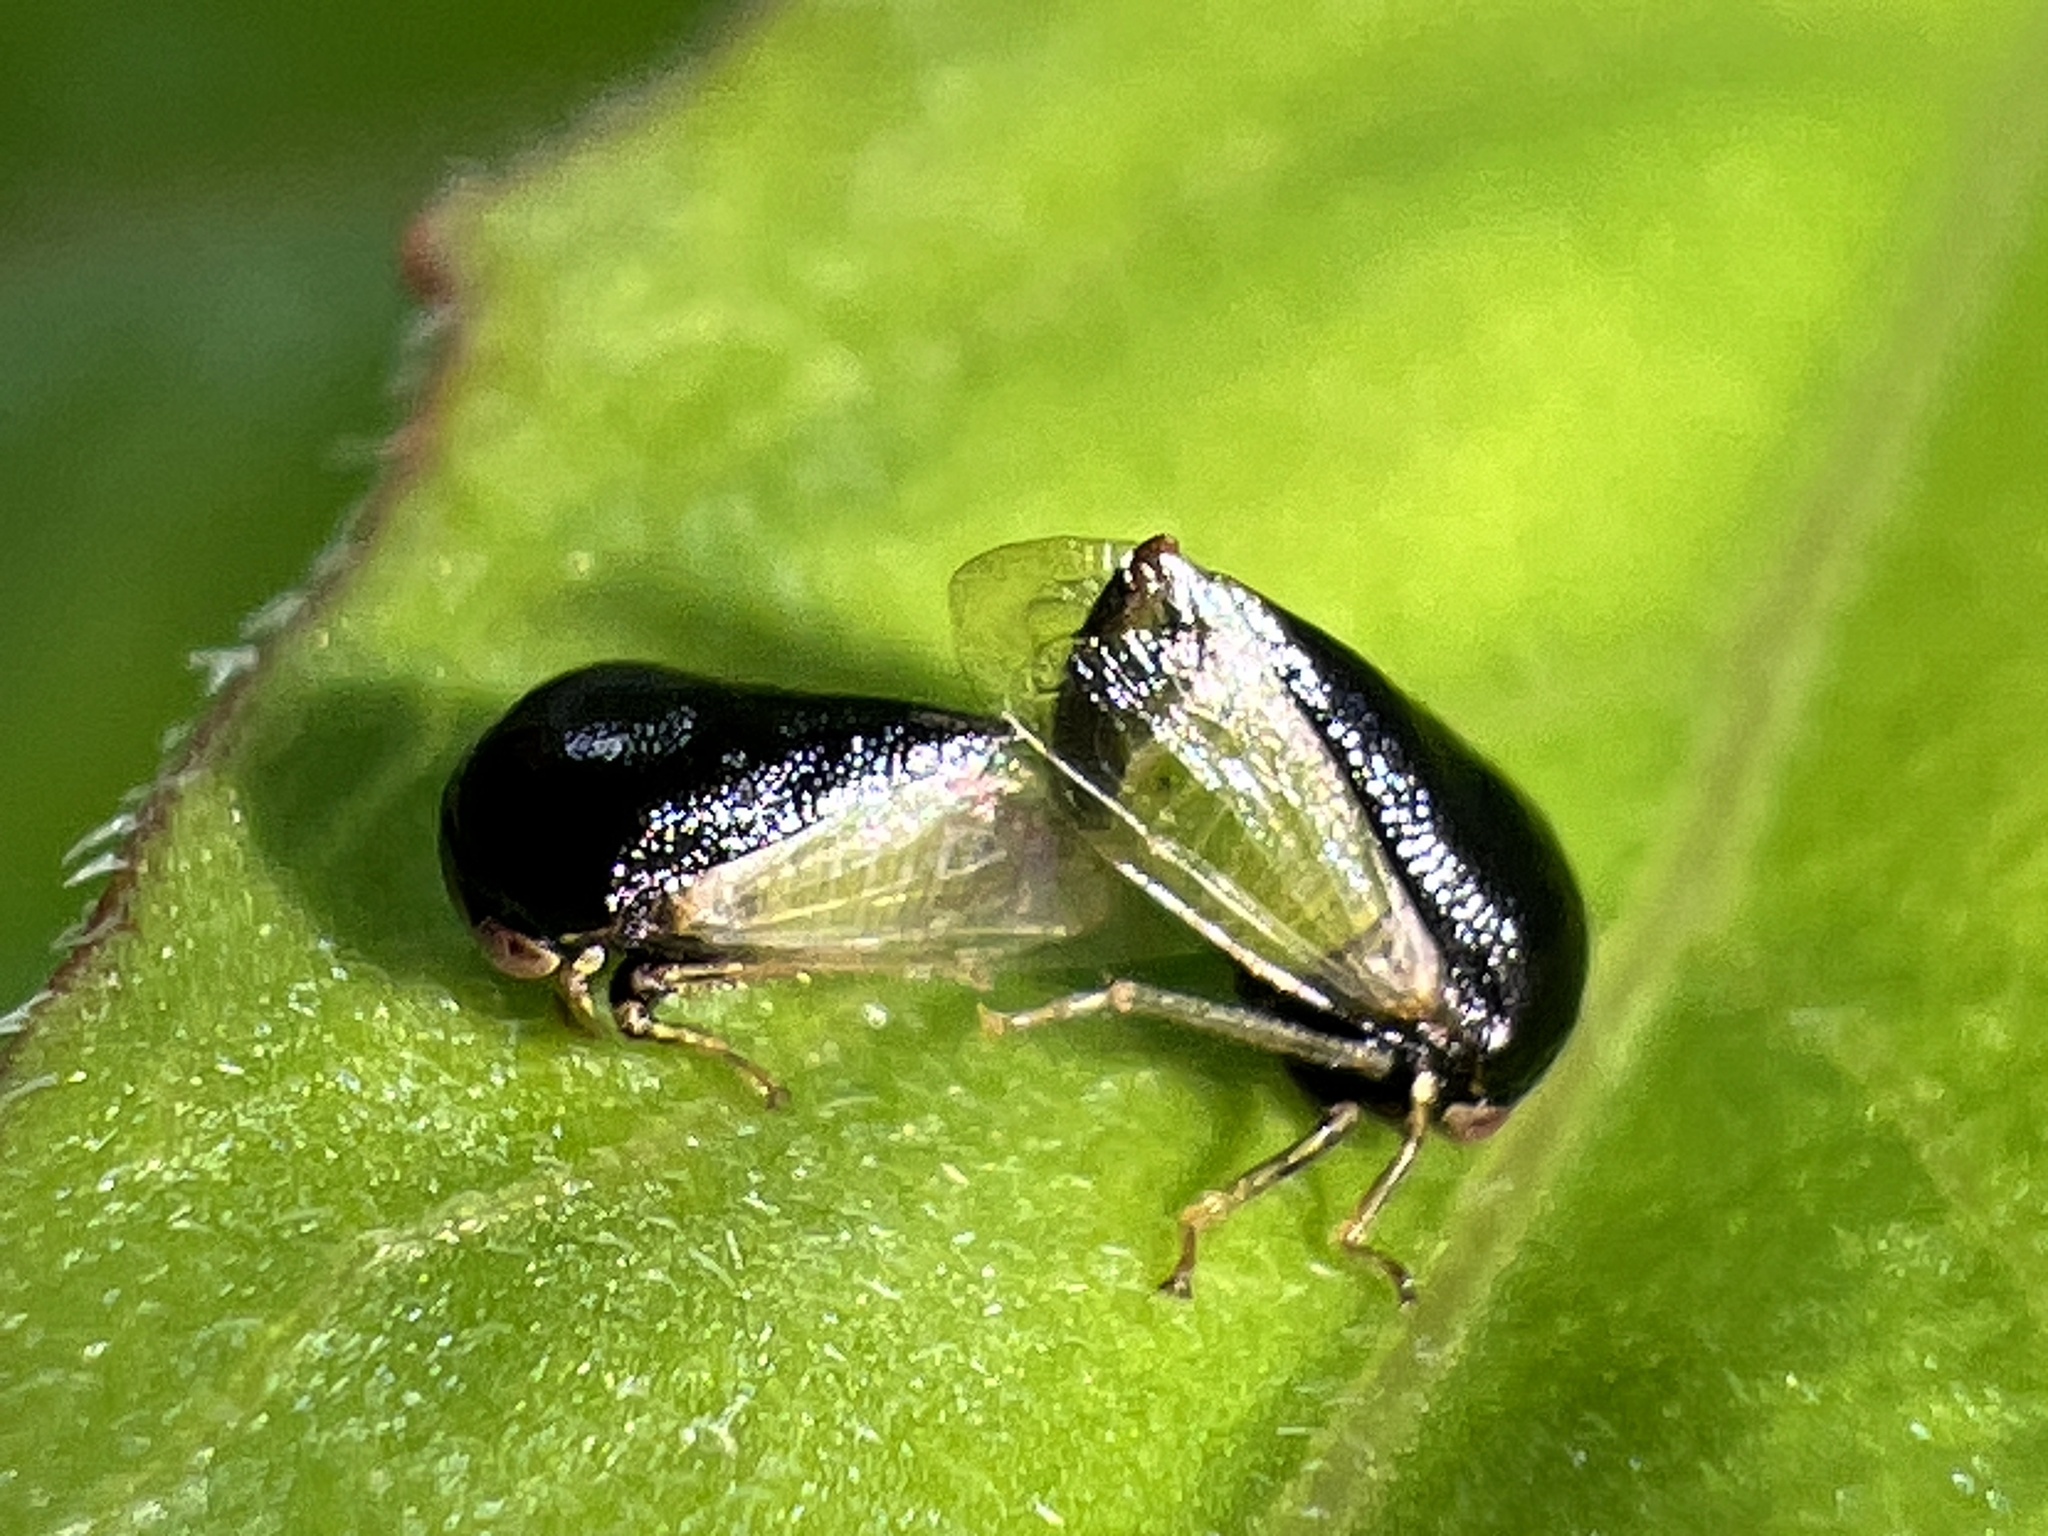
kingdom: Animalia
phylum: Arthropoda
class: Insecta
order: Hemiptera
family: Membracidae
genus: Micrutalis
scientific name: Micrutalis calva
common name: Honeylocust treehopper
